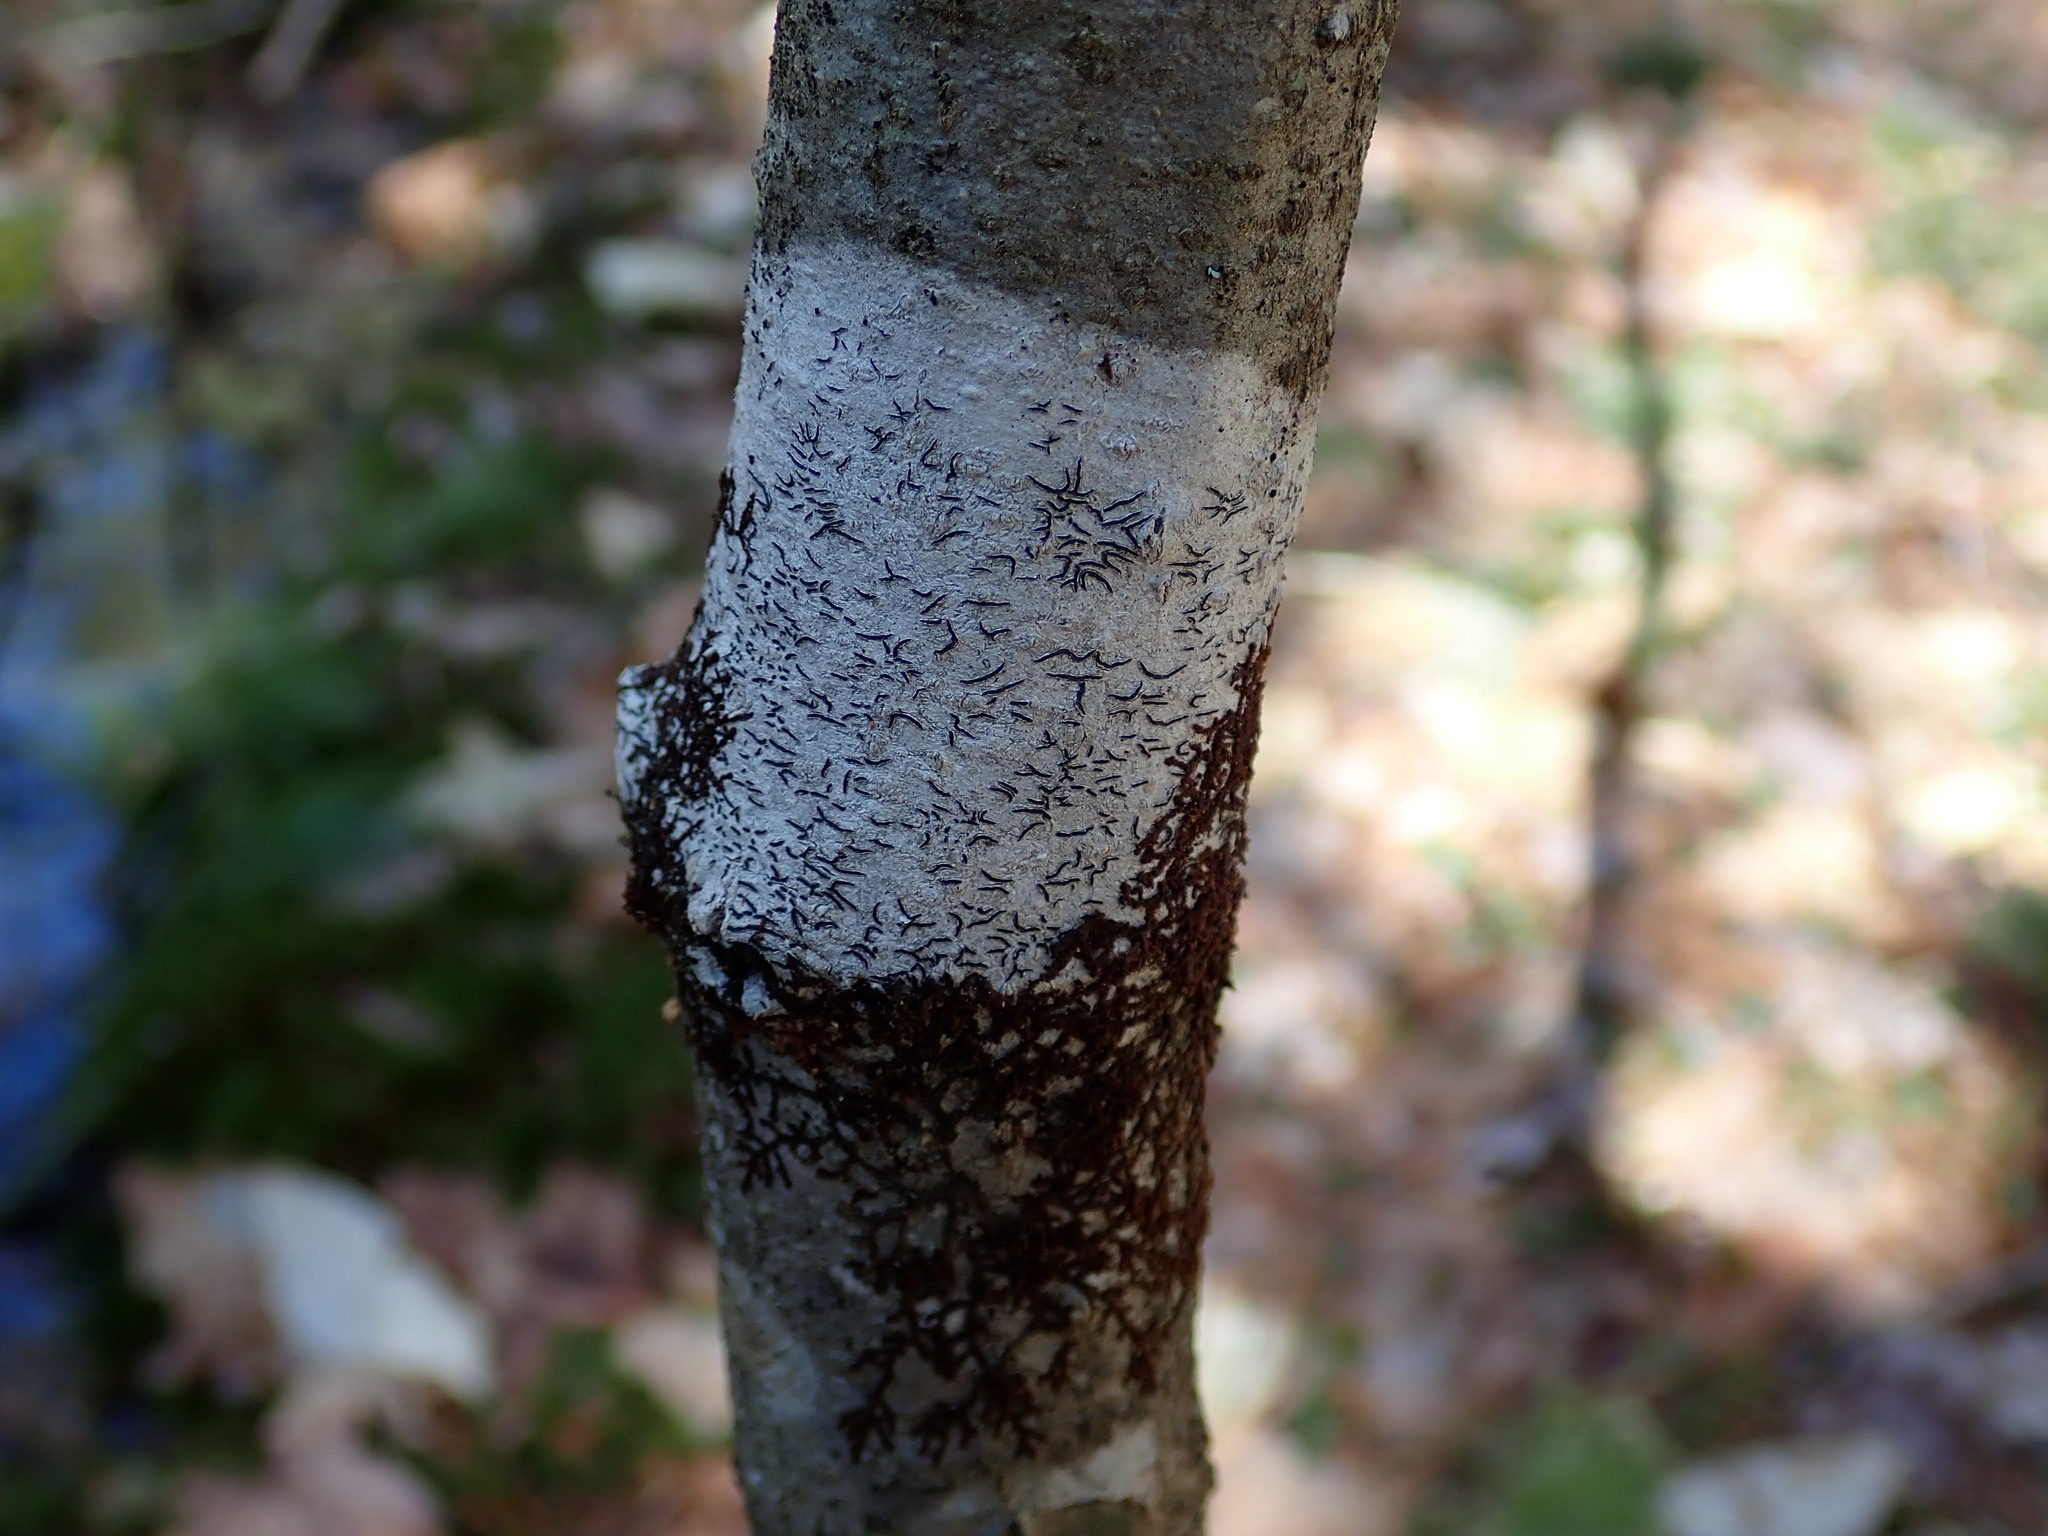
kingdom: Fungi
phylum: Ascomycota
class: Lecanoromycetes
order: Ostropales
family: Graphidaceae
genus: Graphis
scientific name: Graphis scripta
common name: Script lichen
